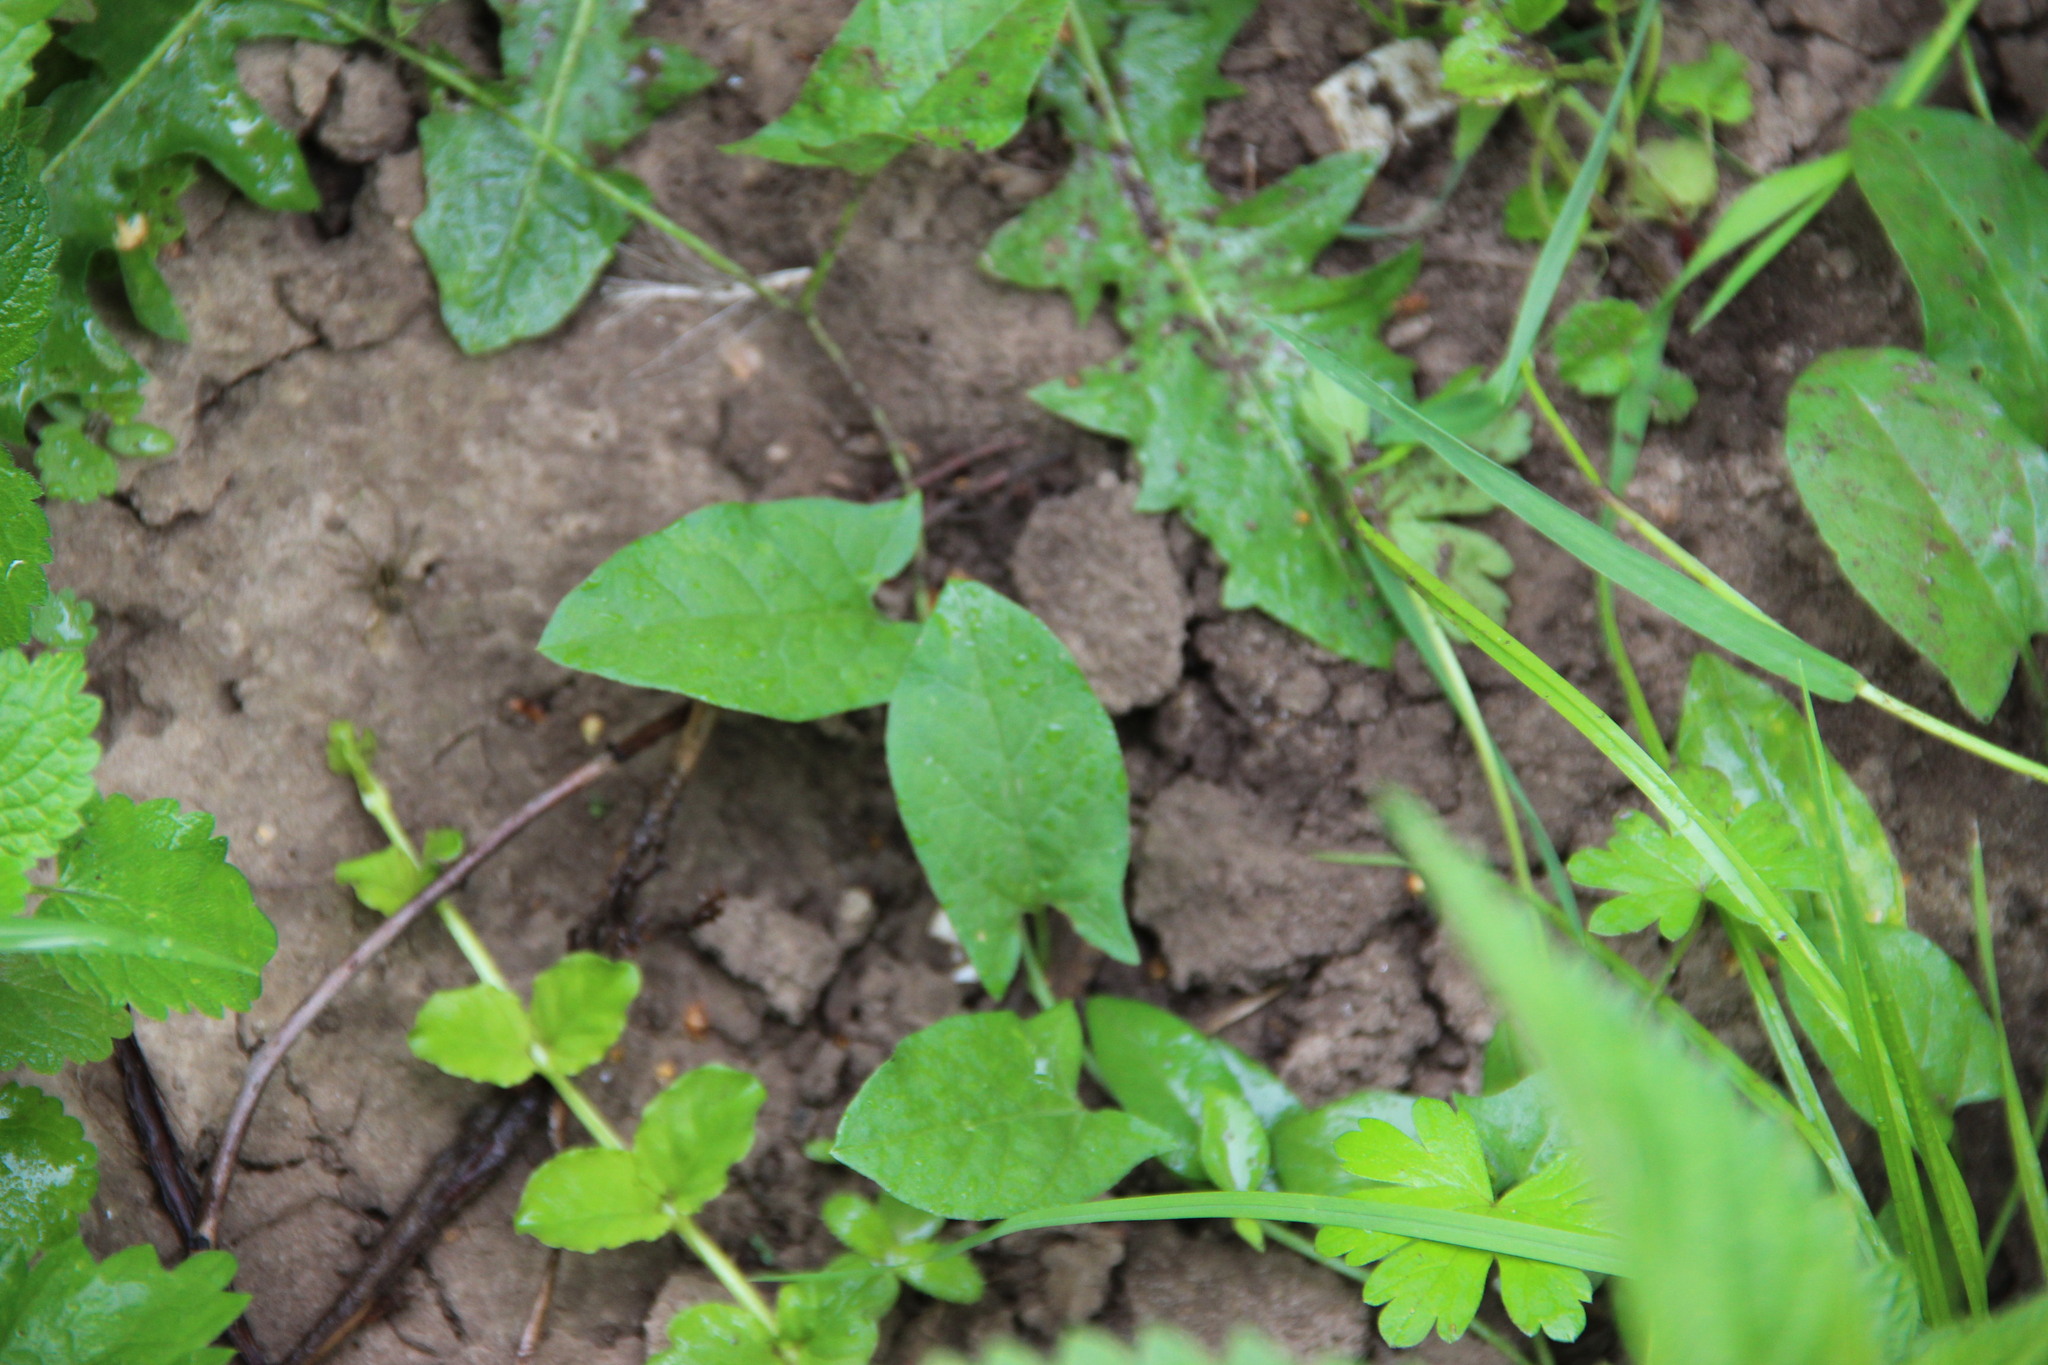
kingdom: Plantae
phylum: Tracheophyta
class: Magnoliopsida
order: Solanales
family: Convolvulaceae
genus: Convolvulus
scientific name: Convolvulus arvensis
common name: Field bindweed
